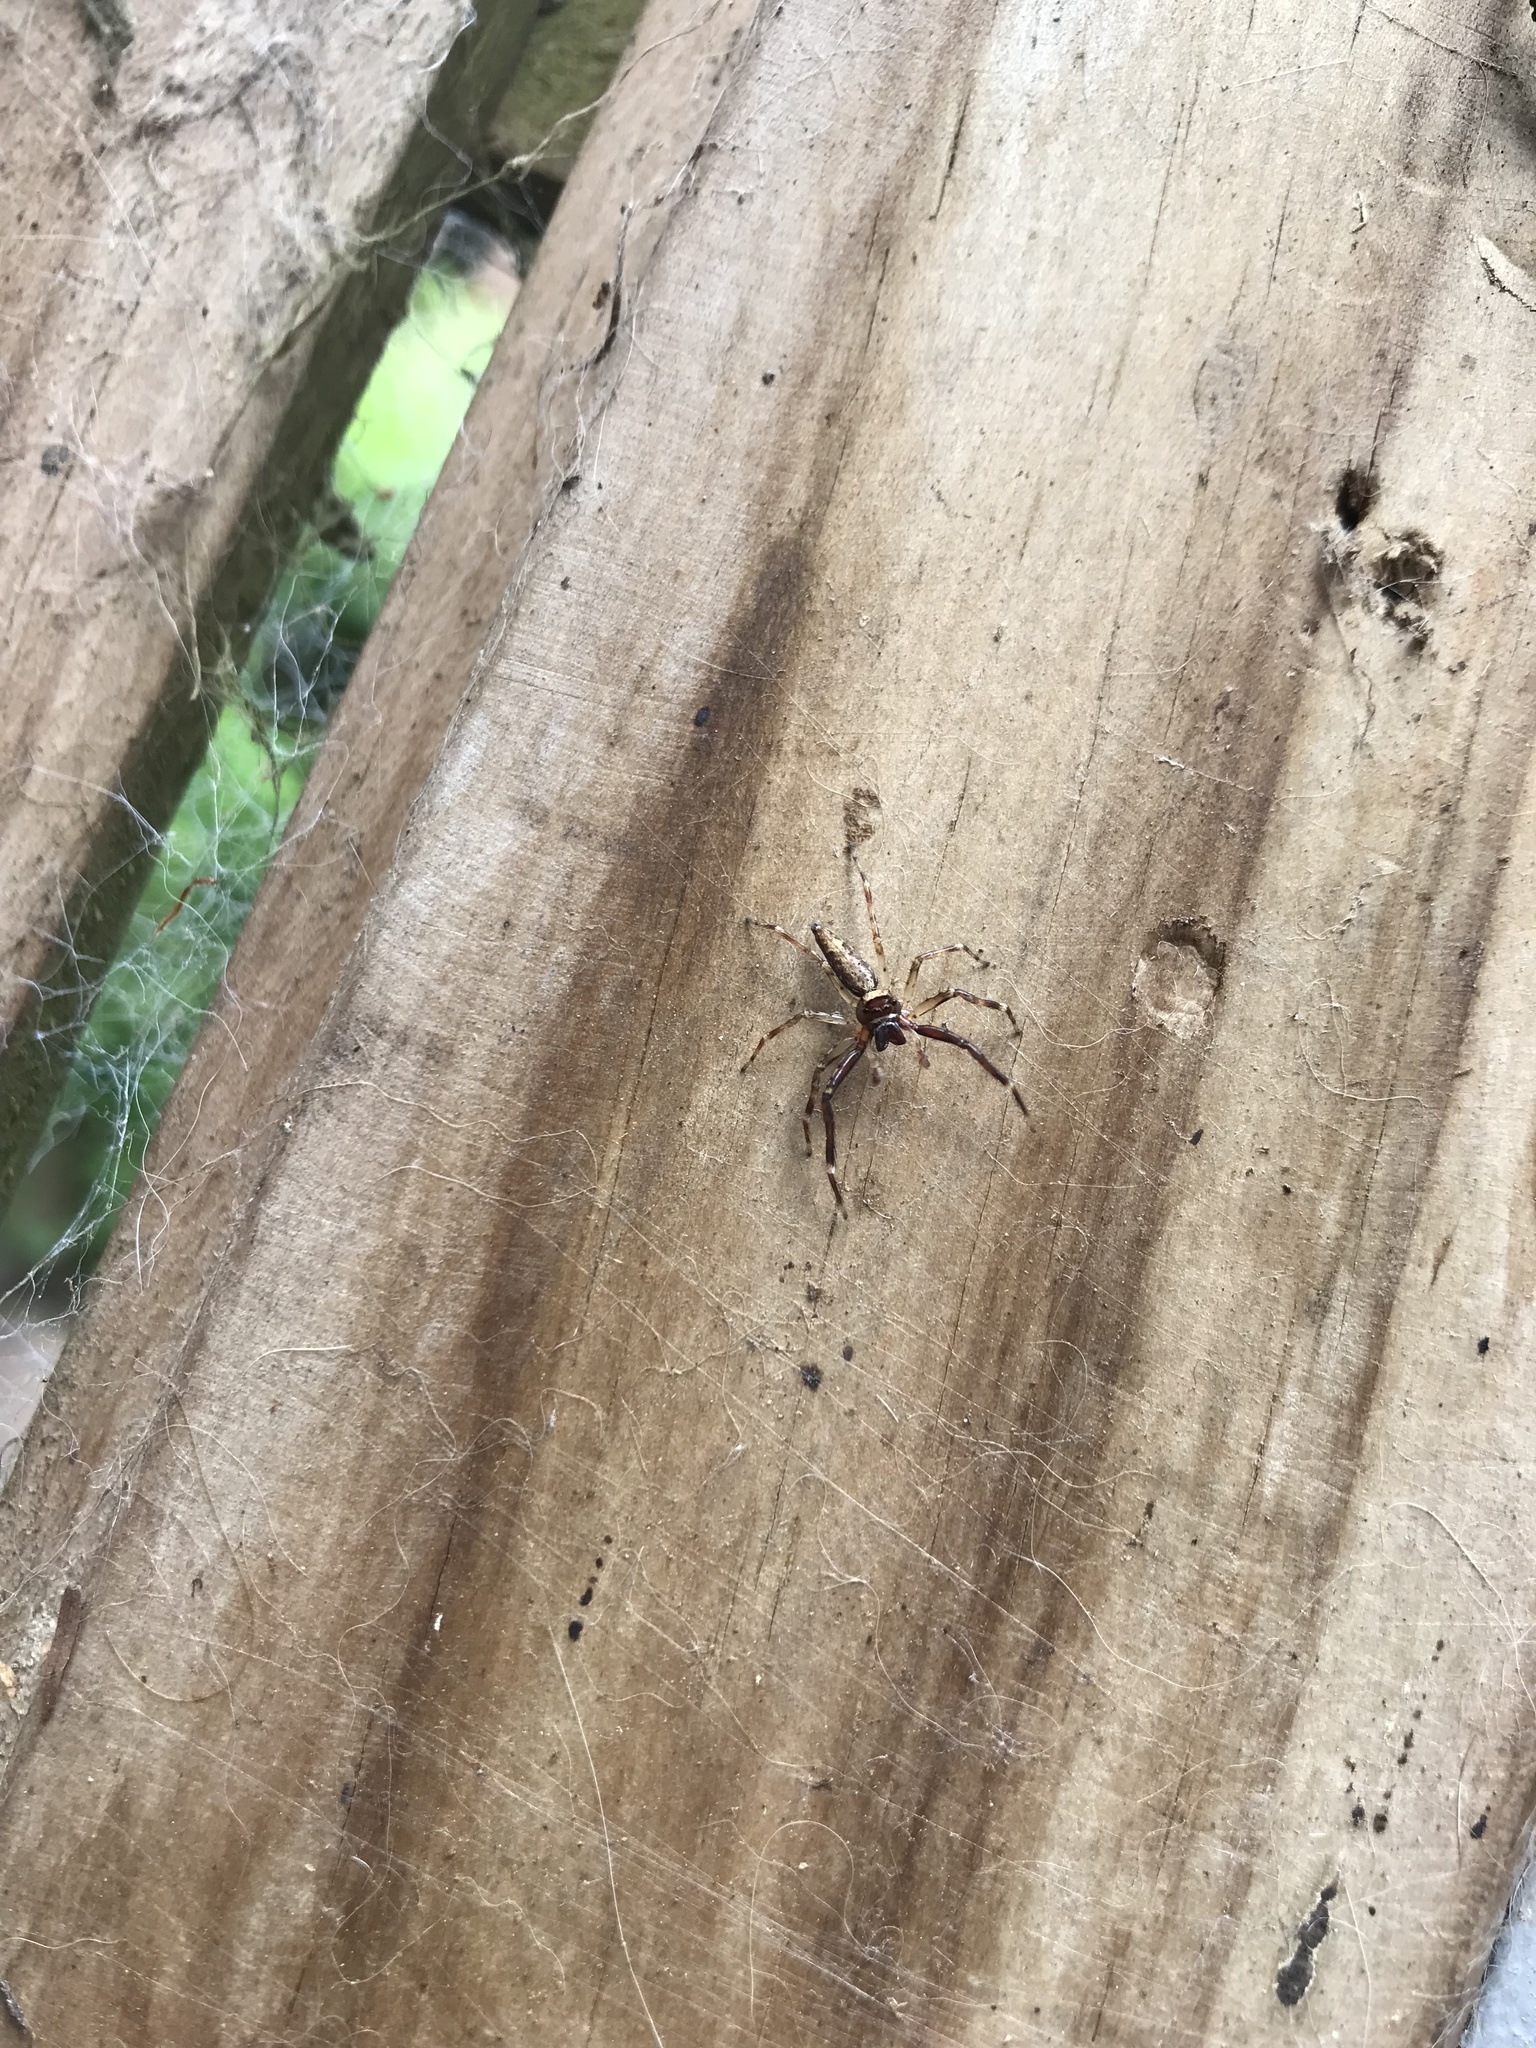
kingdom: Animalia
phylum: Arthropoda
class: Arachnida
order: Araneae
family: Salticidae
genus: Helpis
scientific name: Helpis minitabunda
